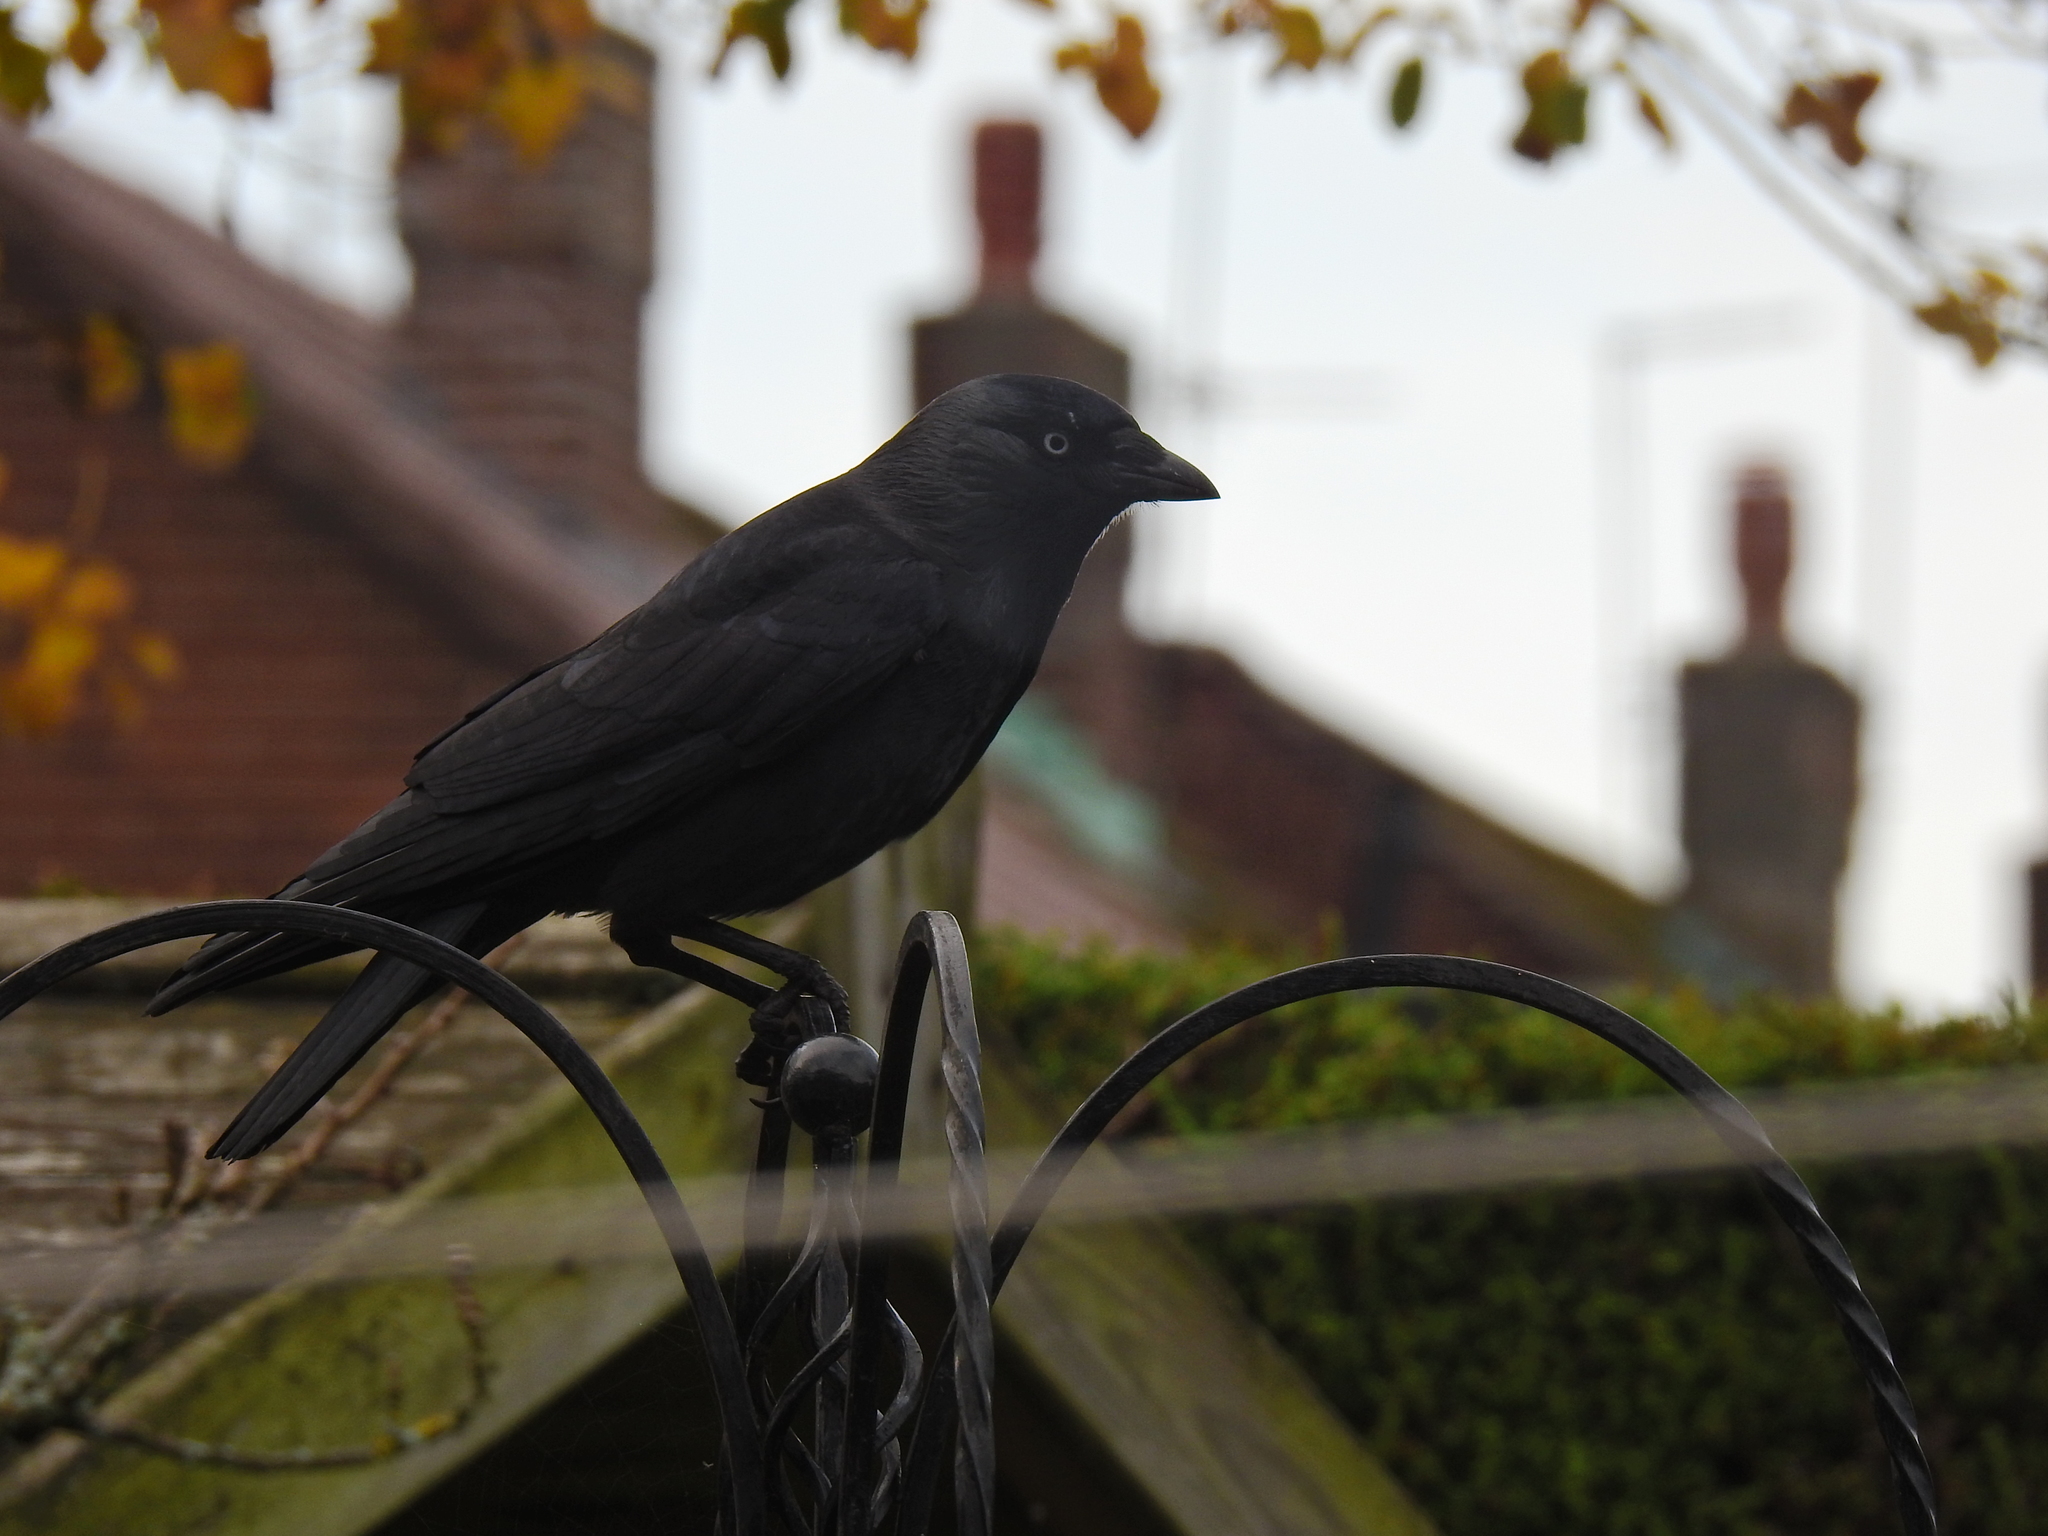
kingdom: Animalia
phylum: Chordata
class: Aves
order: Passeriformes
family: Corvidae
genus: Coloeus
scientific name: Coloeus monedula
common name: Western jackdaw
